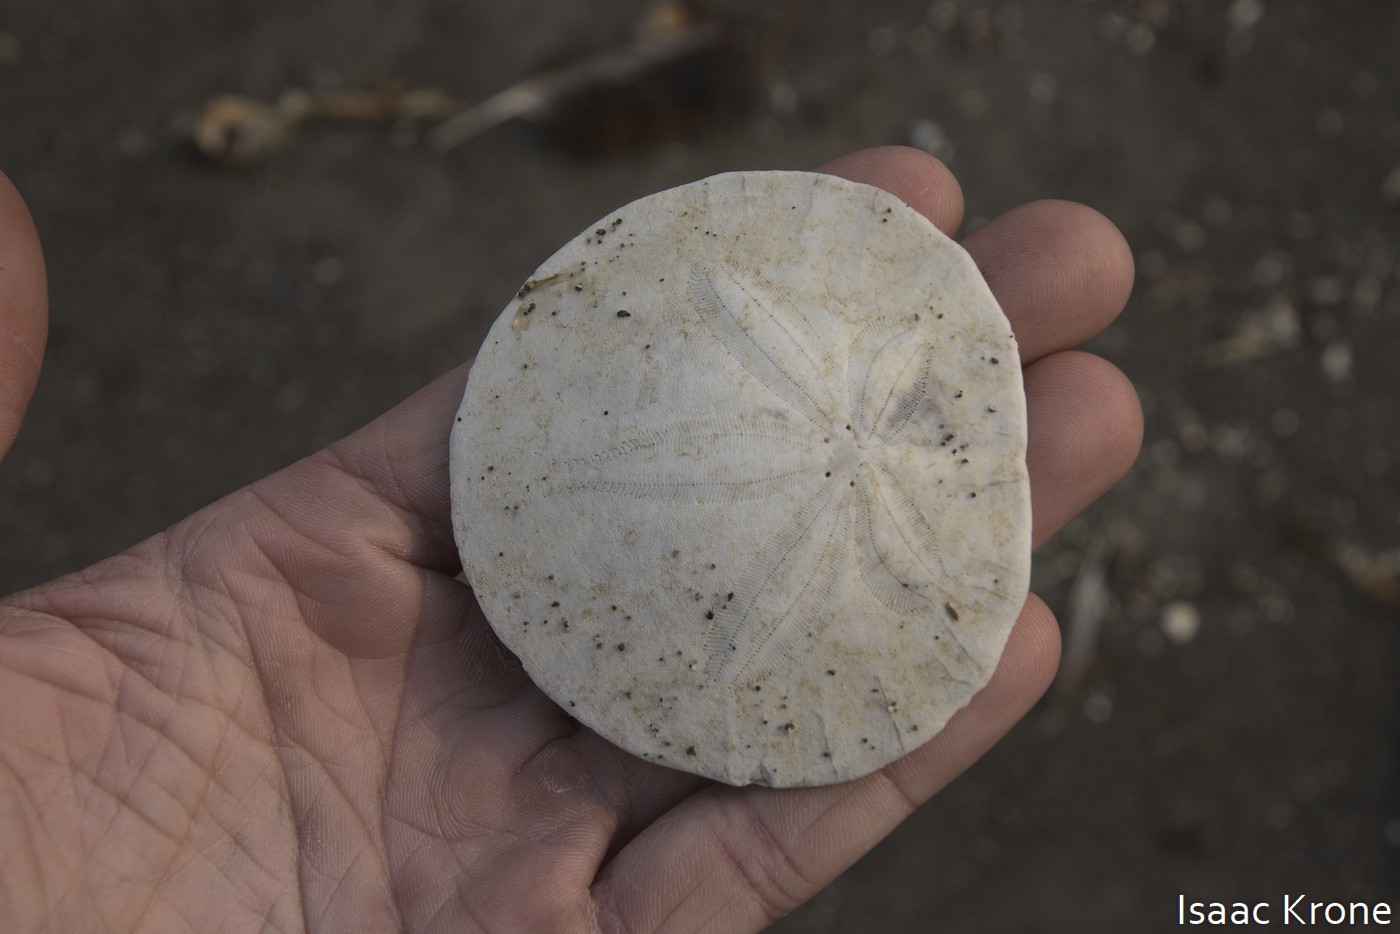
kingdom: Animalia
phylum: Echinodermata
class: Echinoidea
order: Echinolampadacea
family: Dendrasteridae
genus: Dendraster
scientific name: Dendraster excentricus
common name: Eccentric sand dollar sea urchin
